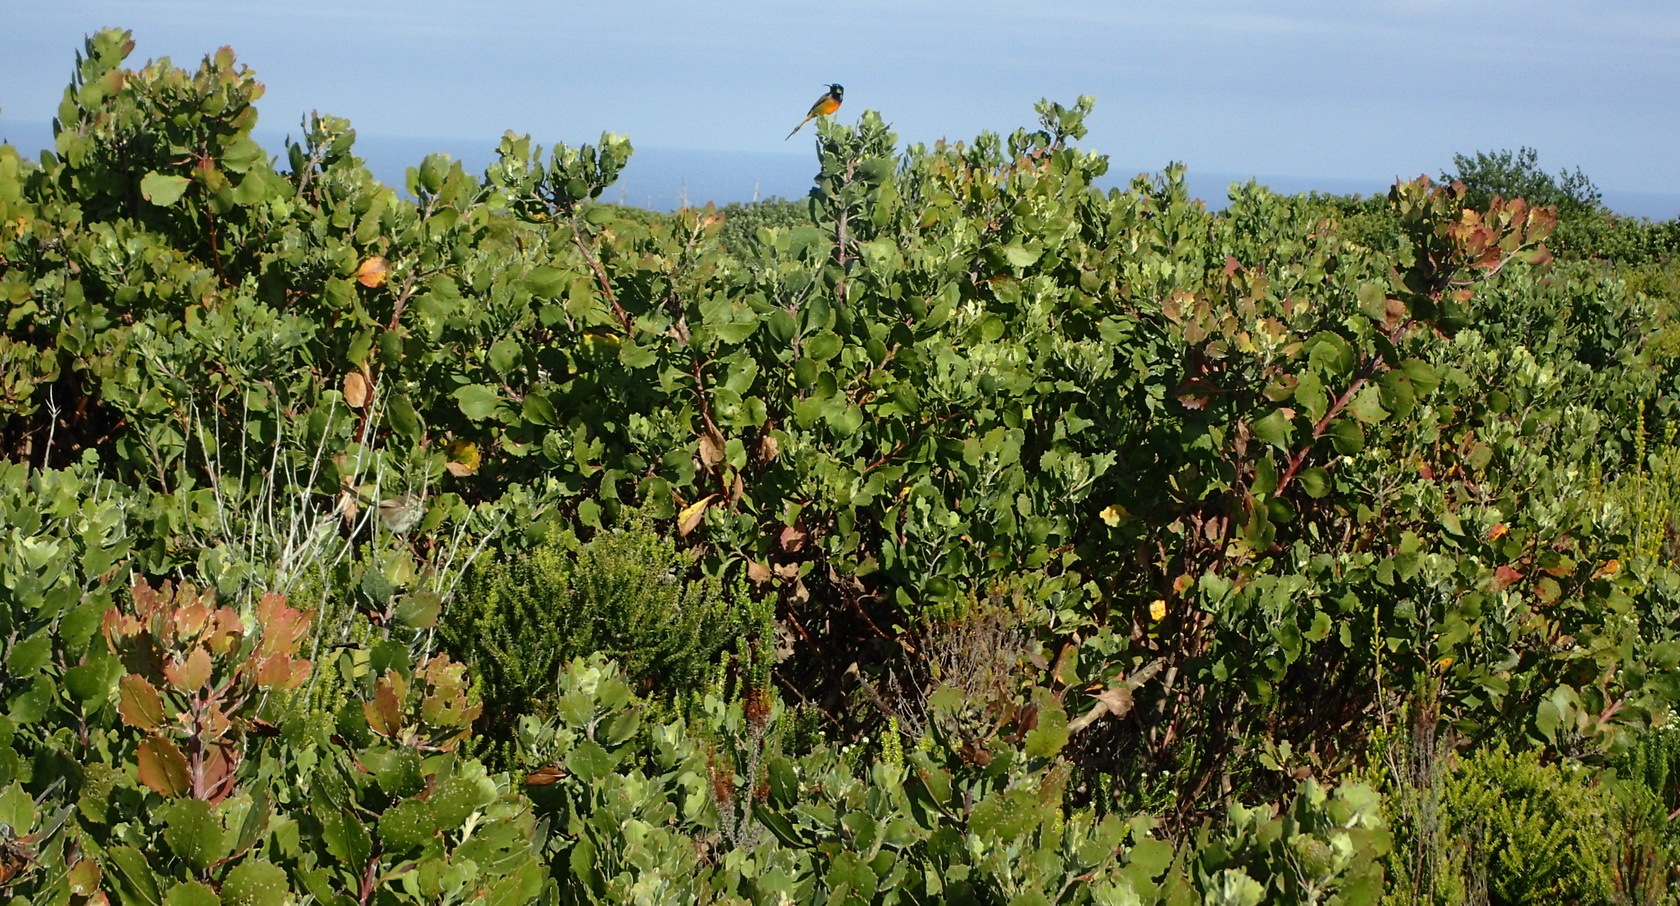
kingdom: Plantae
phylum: Tracheophyta
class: Magnoliopsida
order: Asterales
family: Asteraceae
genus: Osteospermum
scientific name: Osteospermum moniliferum
